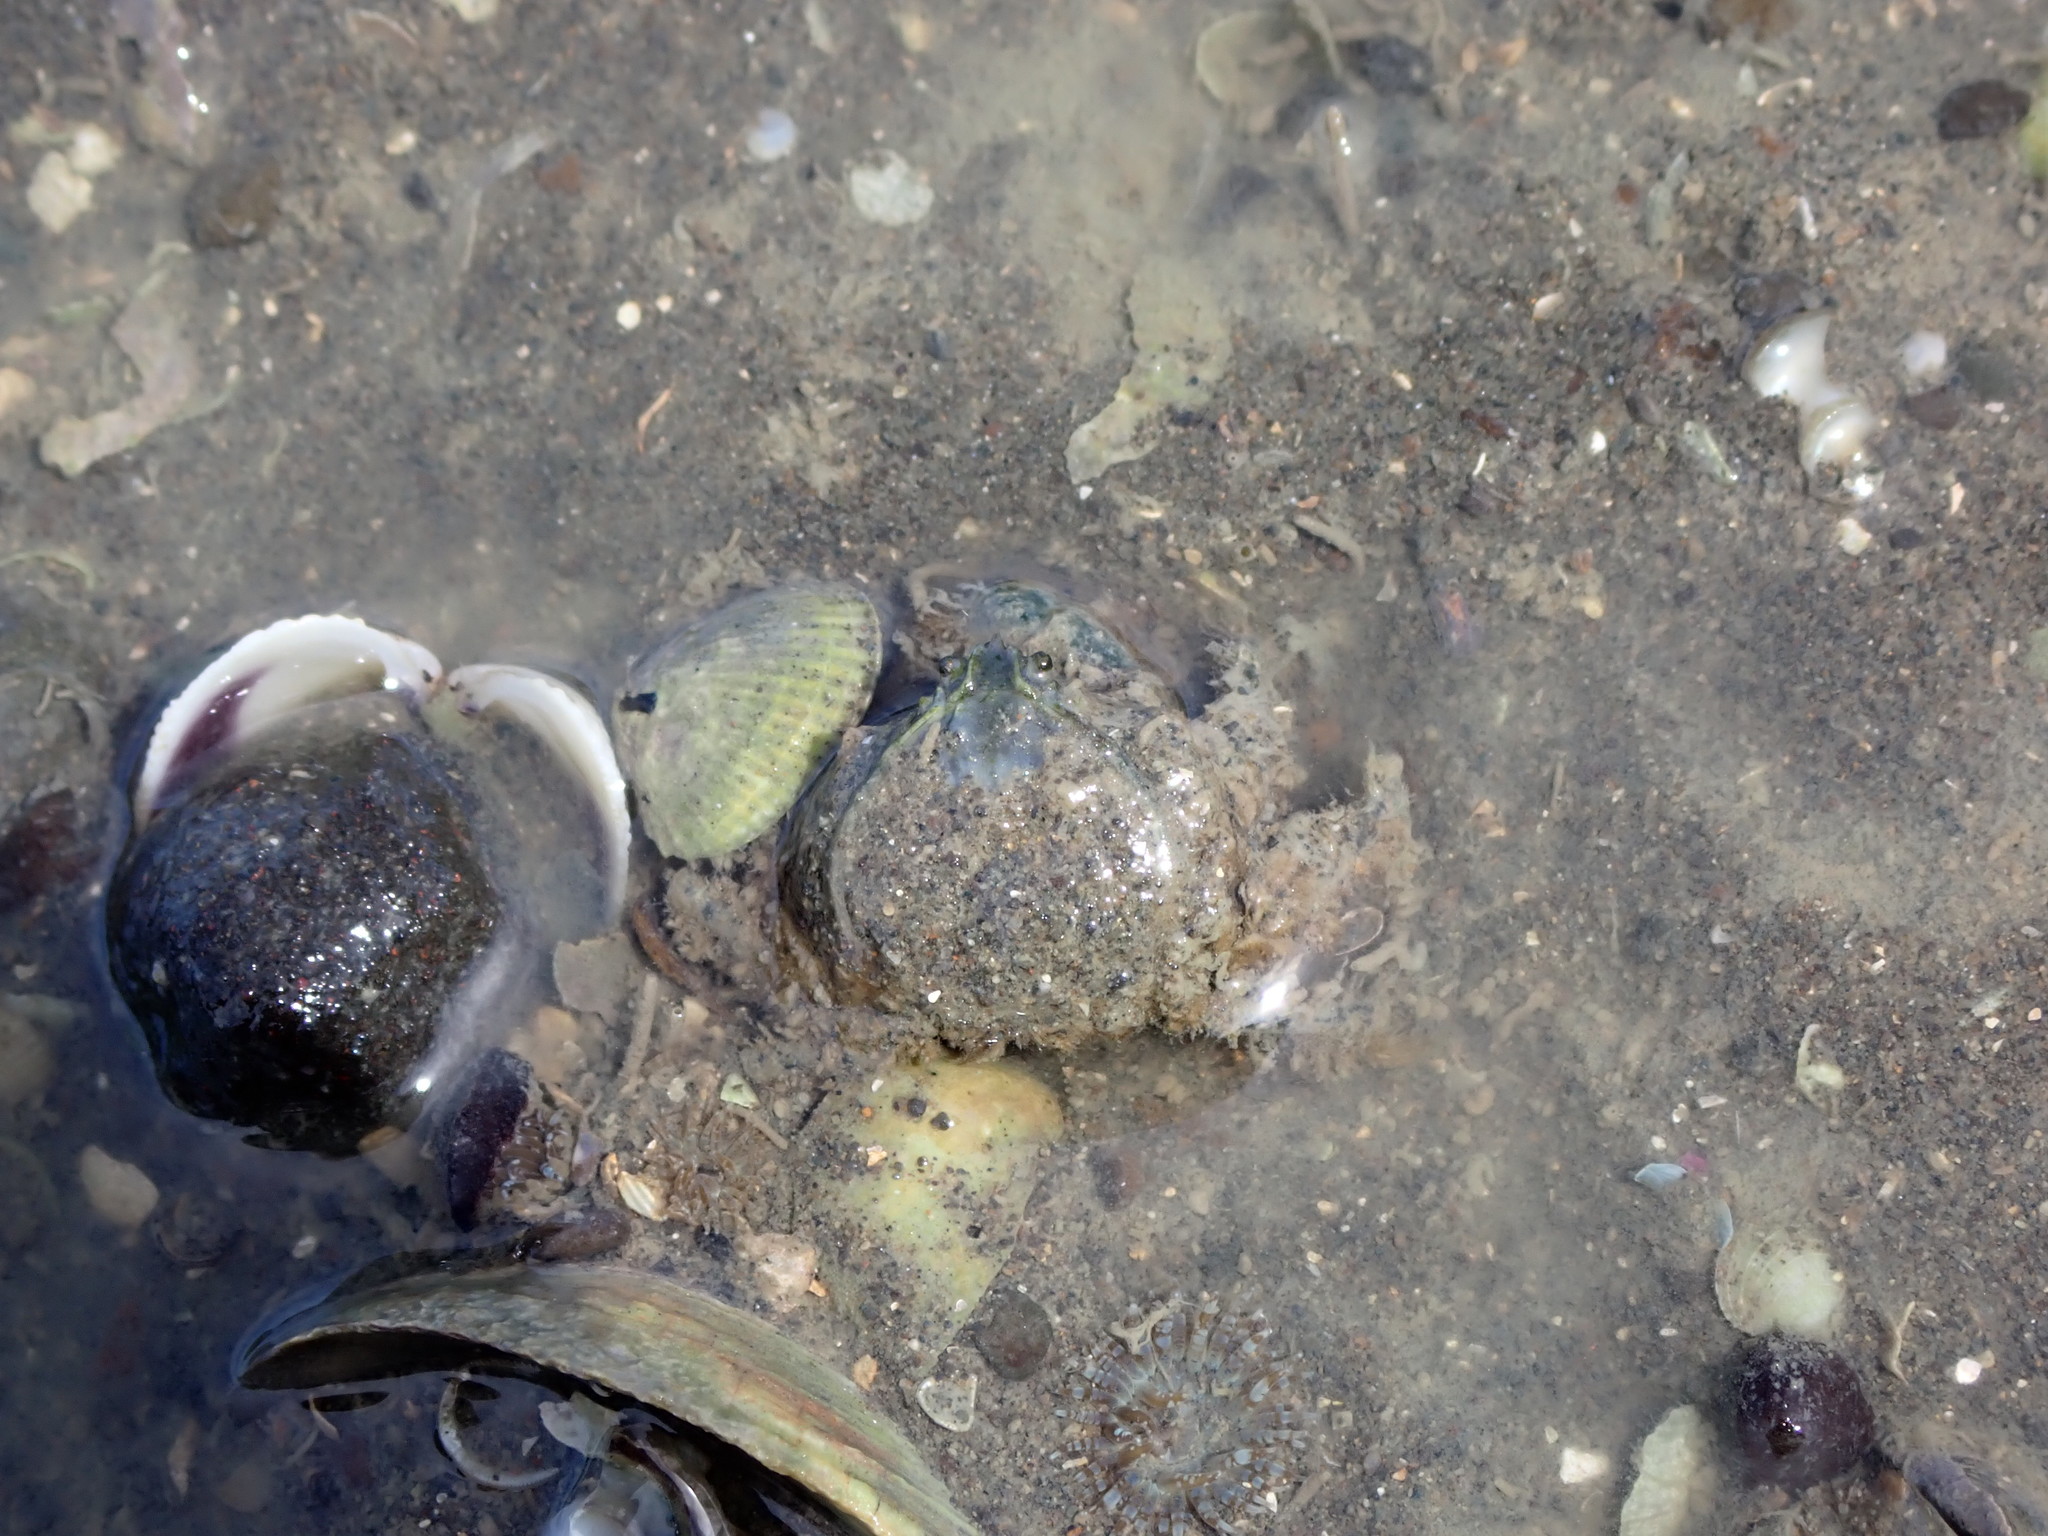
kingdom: Animalia
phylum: Arthropoda
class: Malacostraca
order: Decapoda
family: Hymenosomatidae
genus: Halicarcinus
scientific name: Halicarcinus whitei
